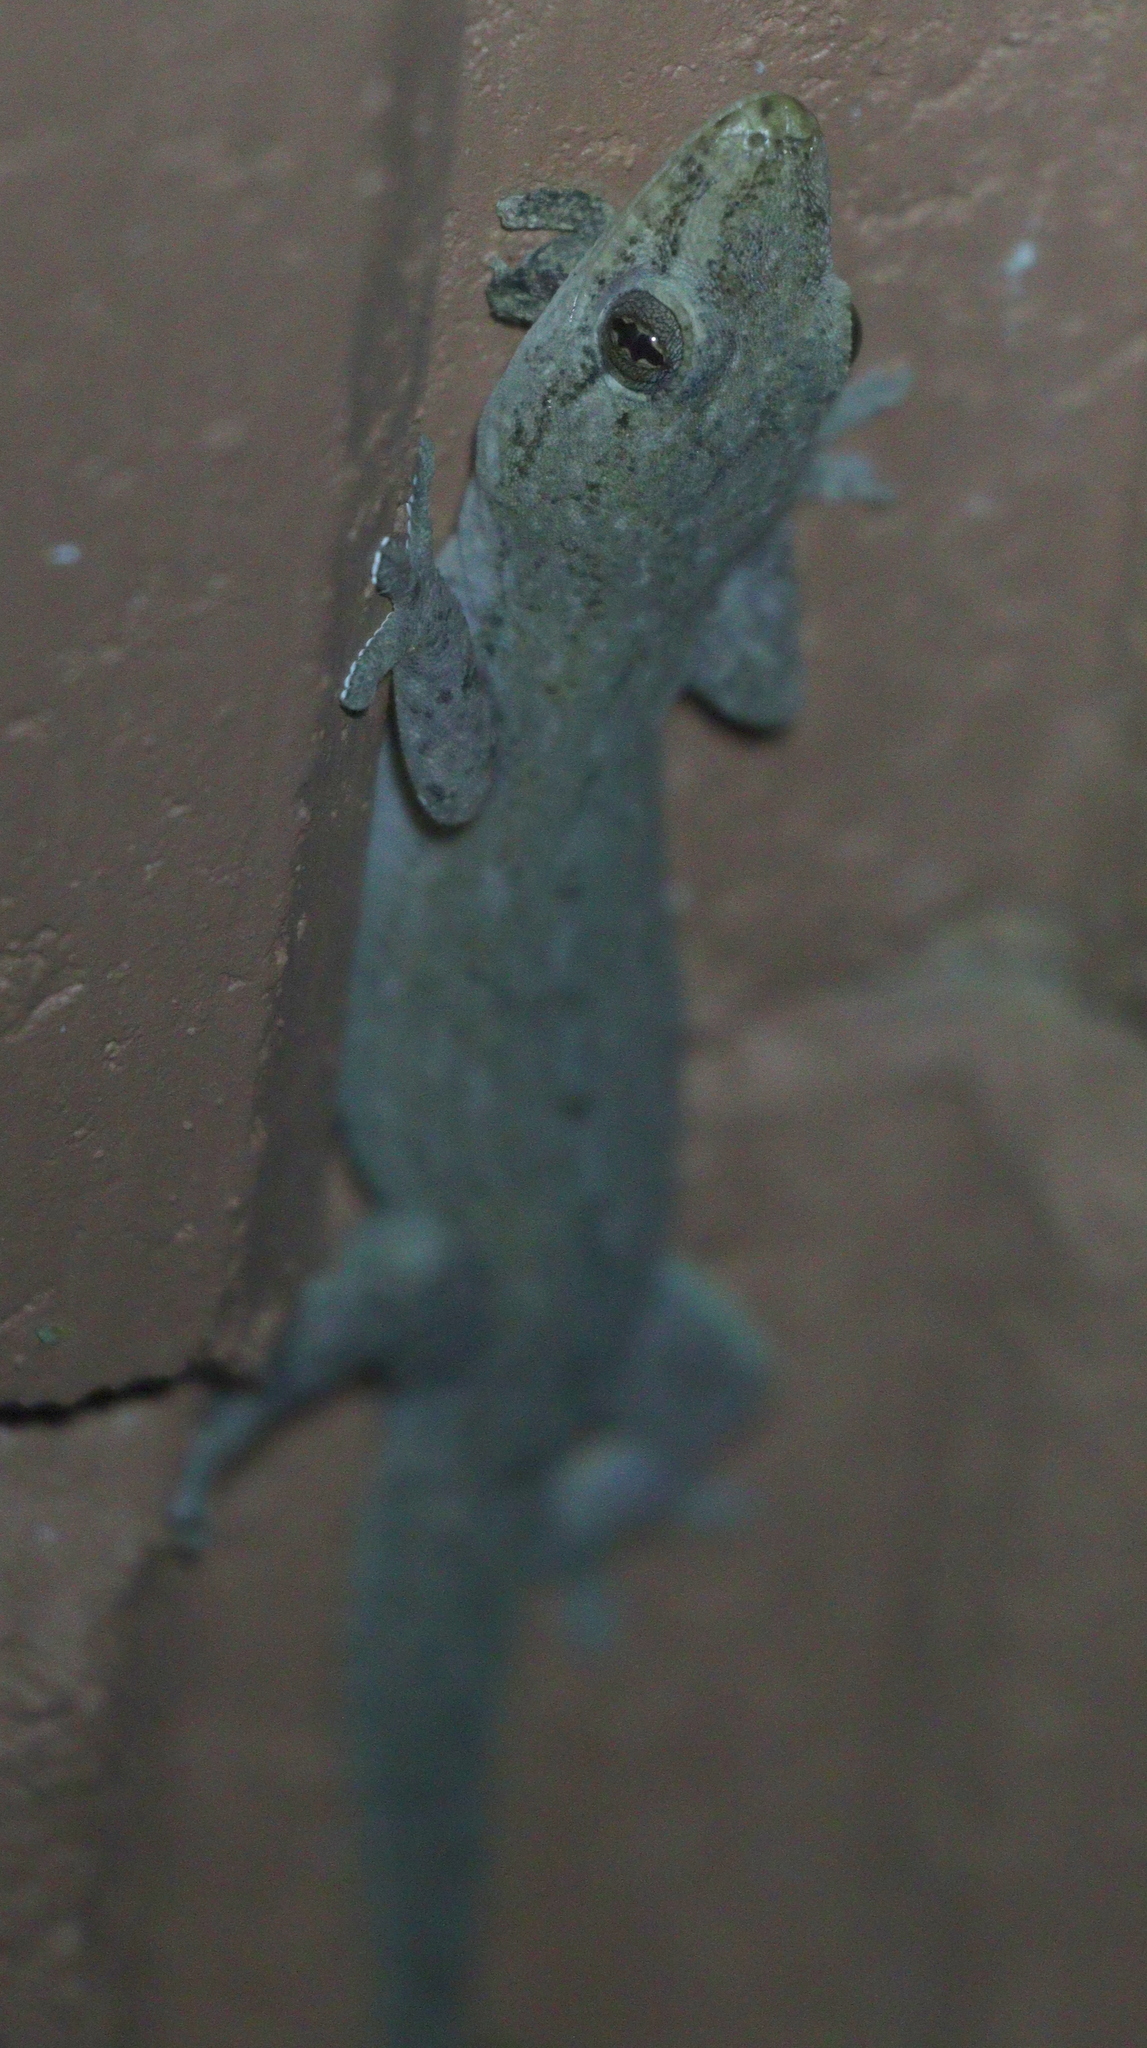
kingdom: Animalia
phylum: Chordata
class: Squamata
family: Gekkonidae
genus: Hemidactylus
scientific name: Hemidactylus frenatus
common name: Common house gecko
